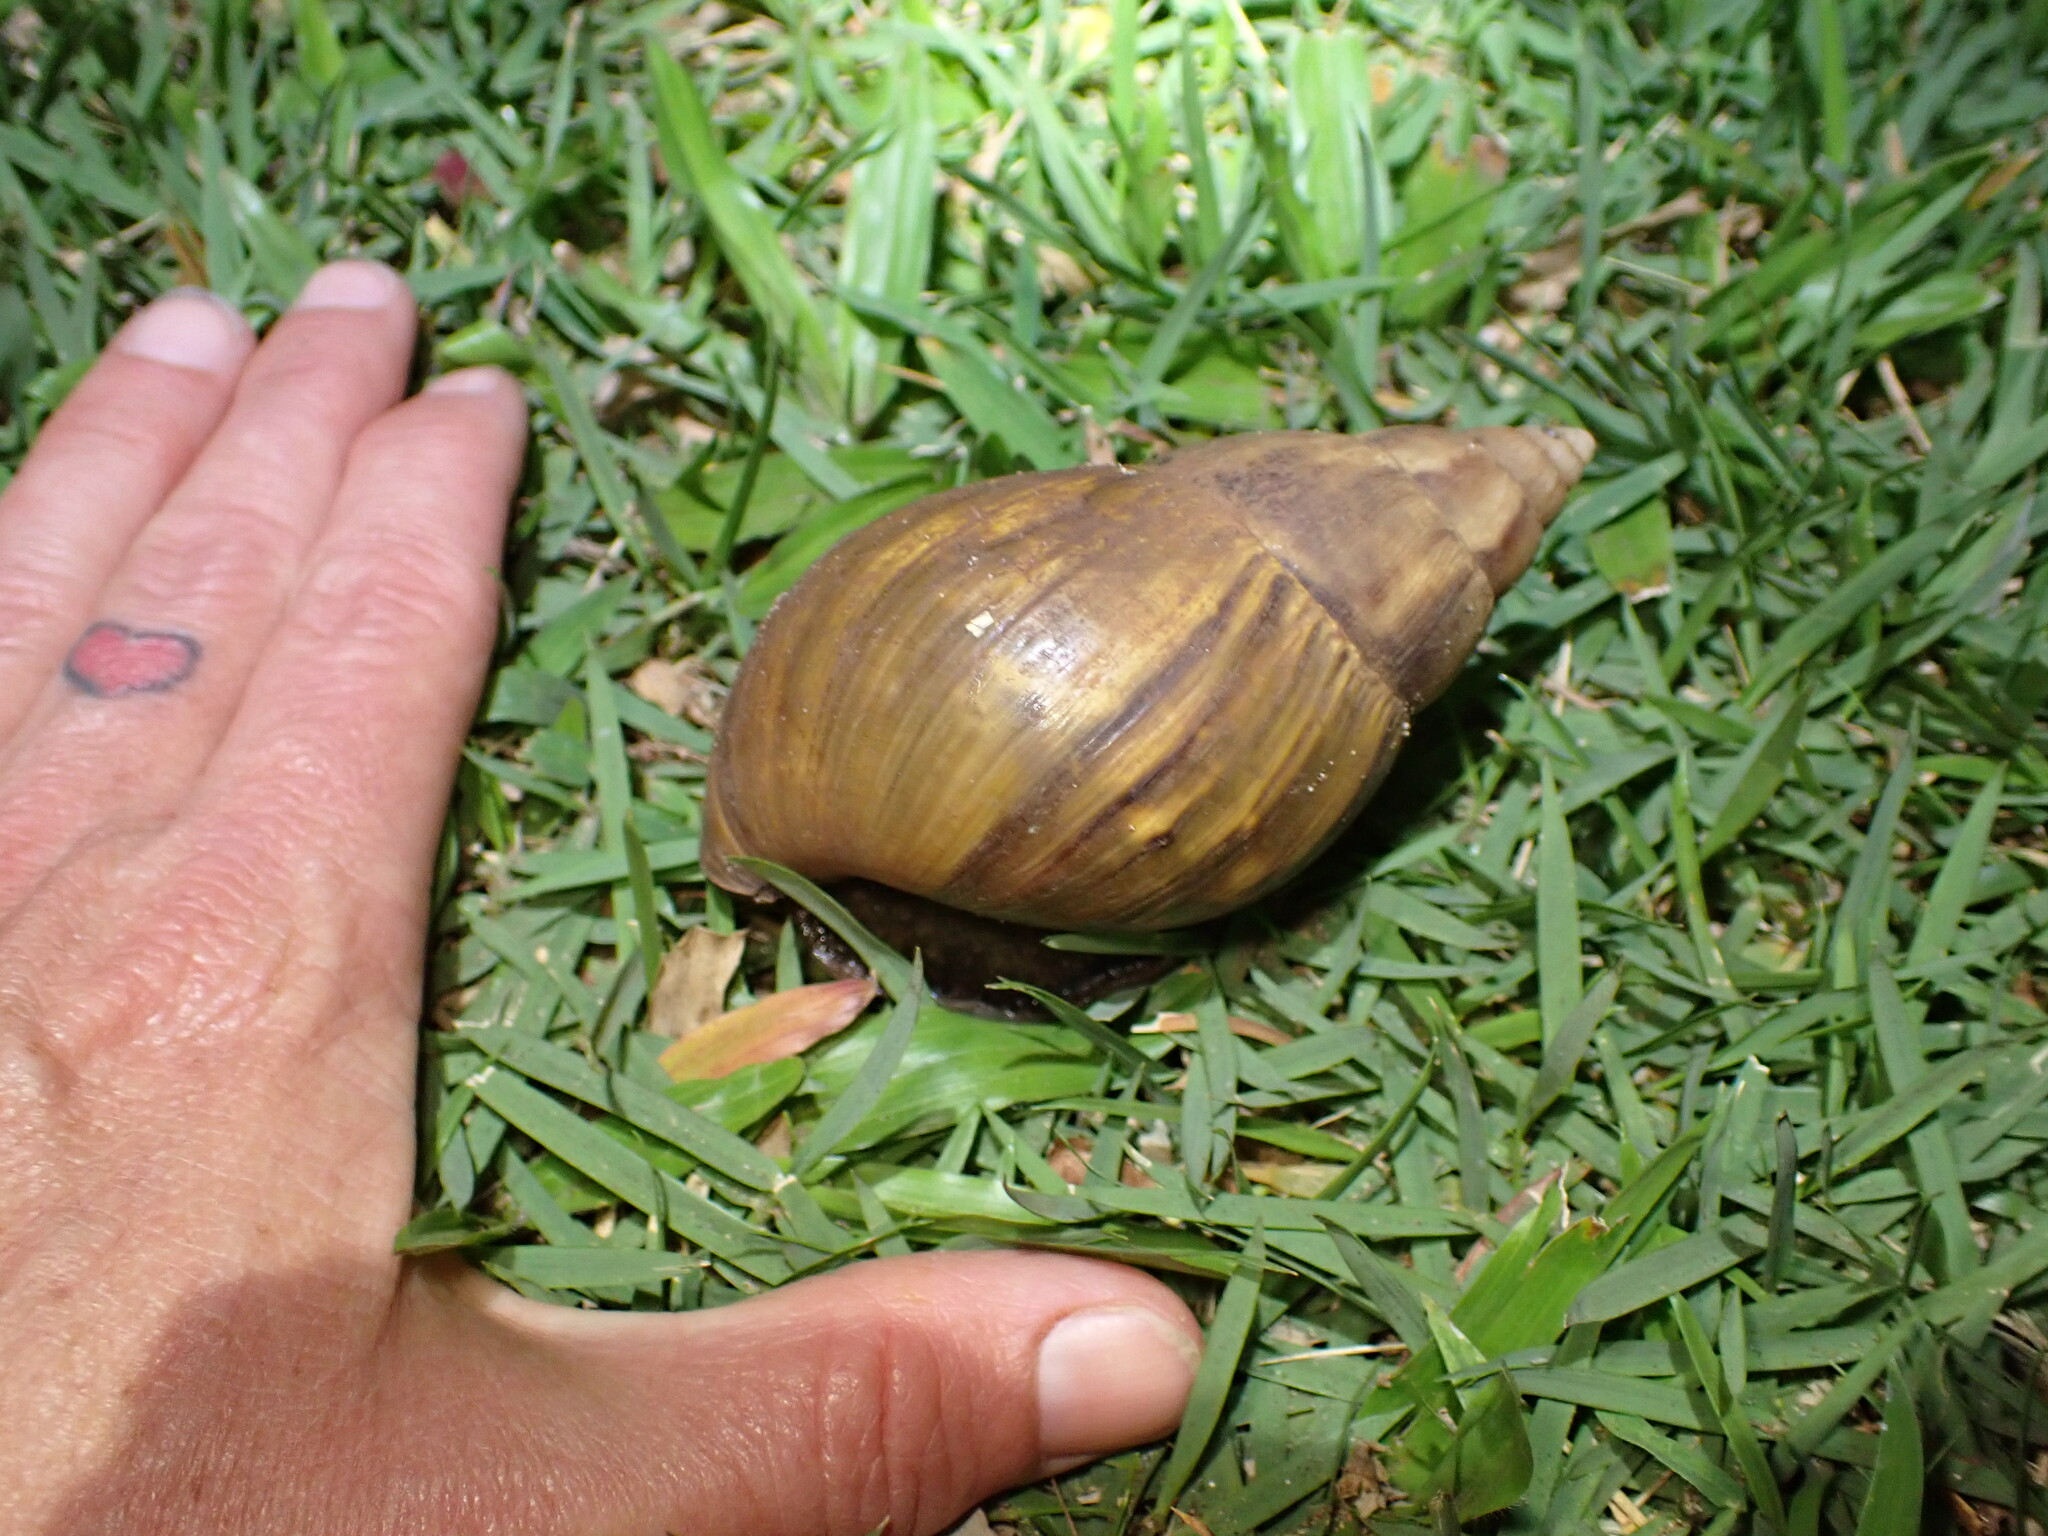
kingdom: Animalia
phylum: Mollusca
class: Gastropoda
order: Stylommatophora
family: Achatinidae
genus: Lissachatina
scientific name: Lissachatina fulica
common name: Giant african snail
